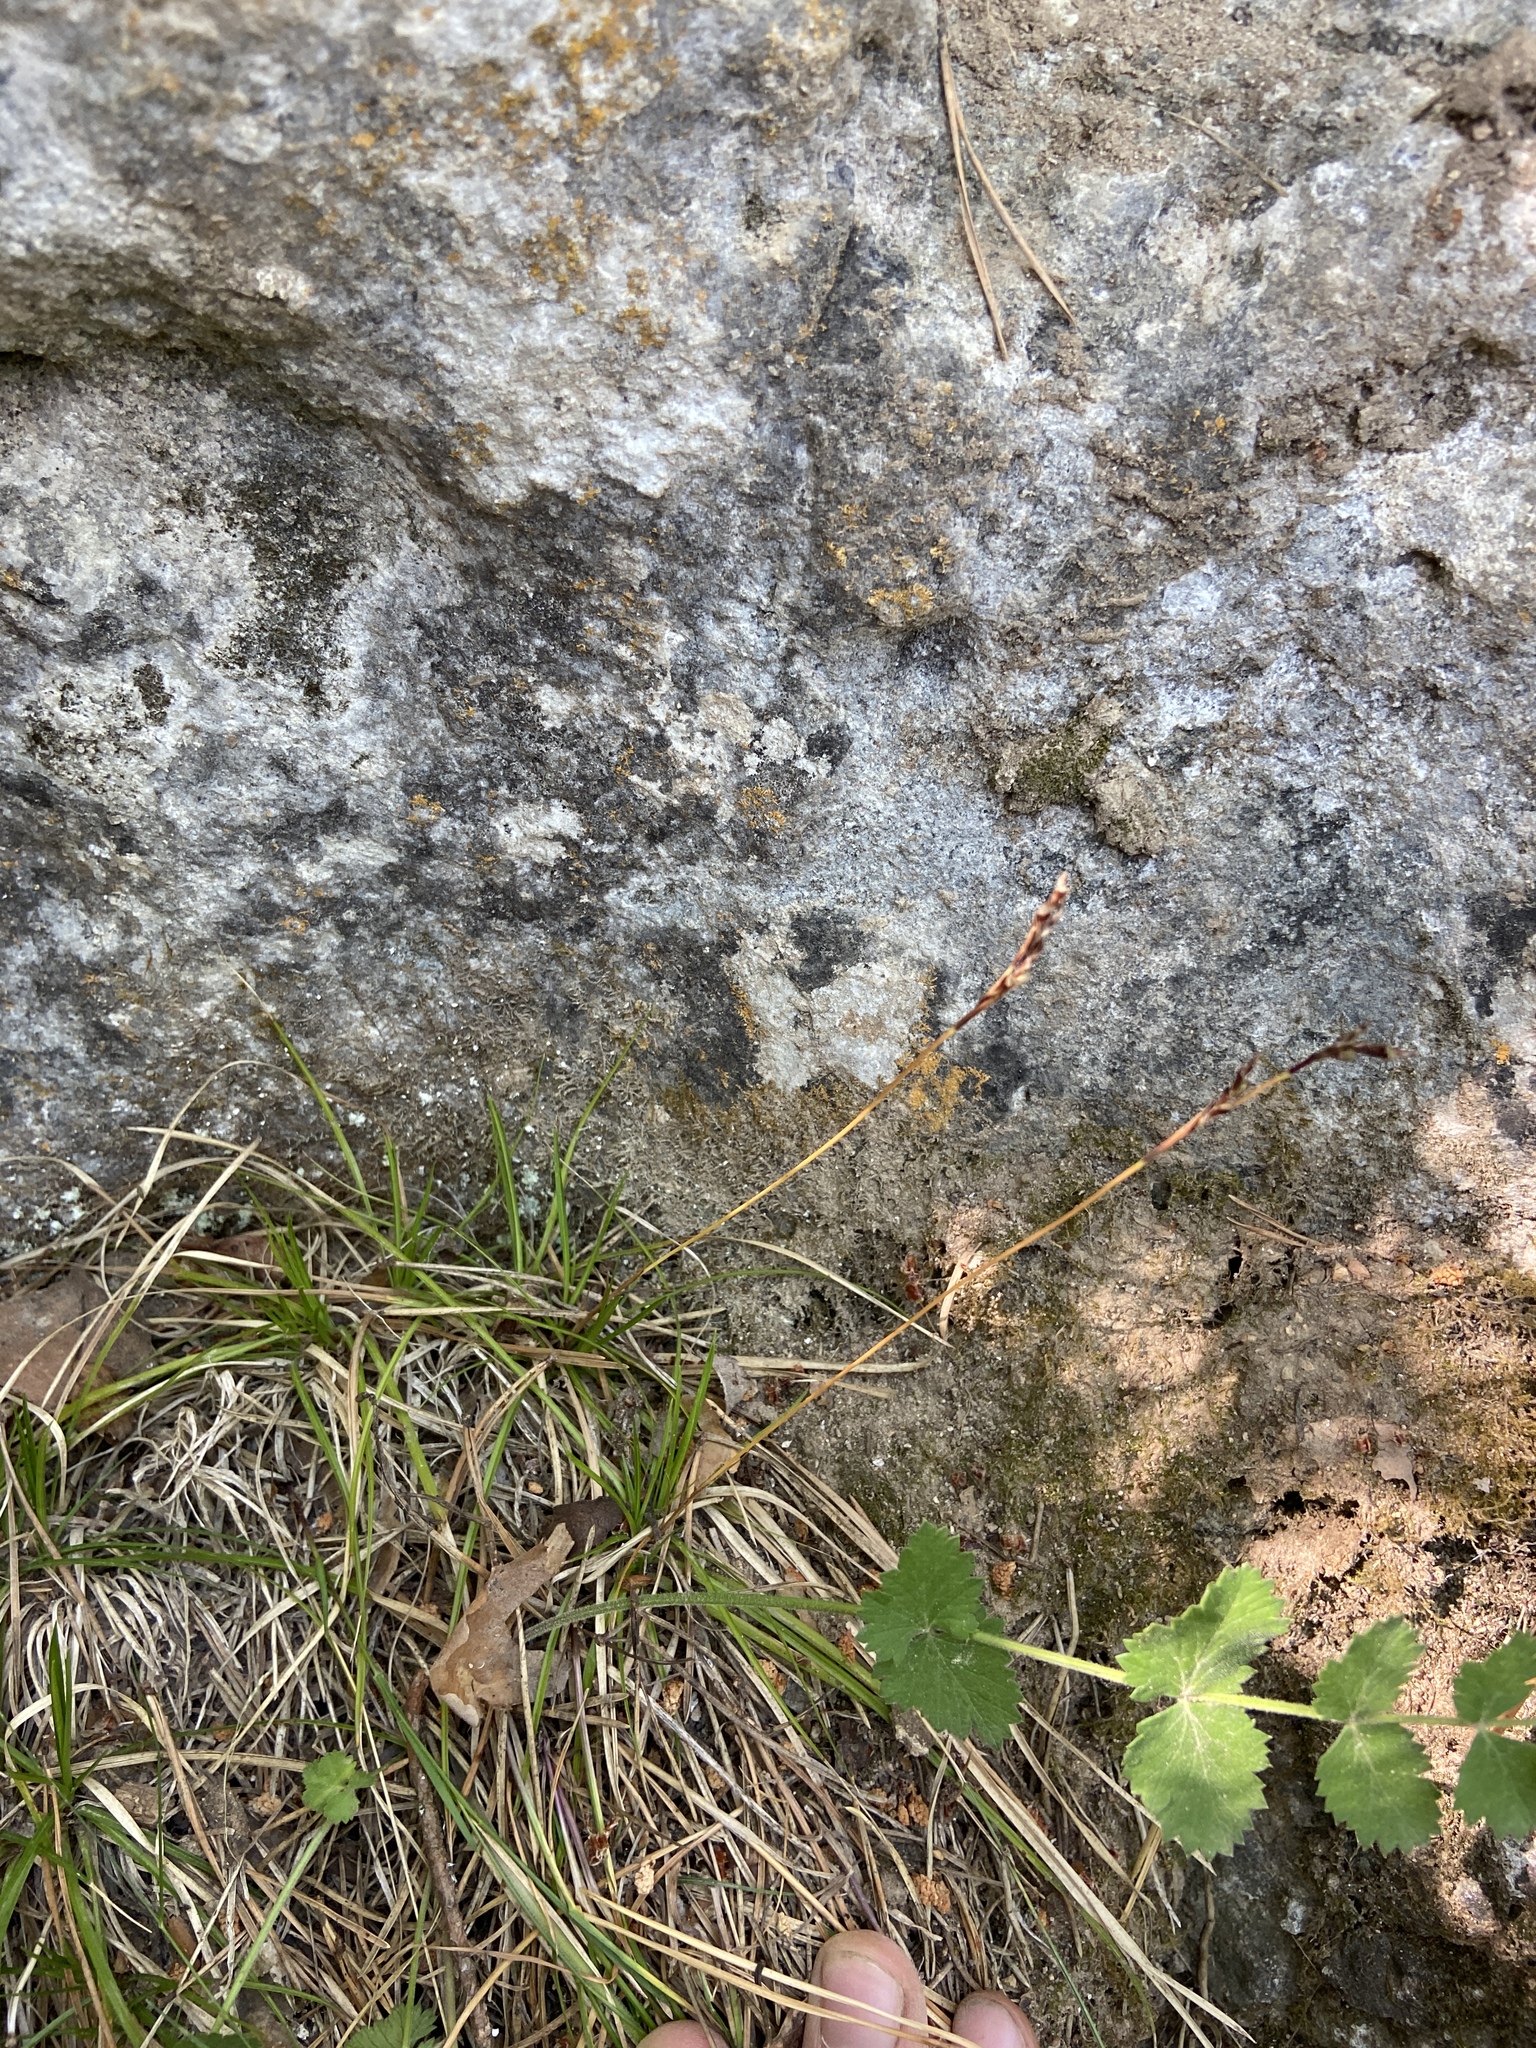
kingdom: Plantae
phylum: Tracheophyta
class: Liliopsida
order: Poales
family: Cyperaceae
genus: Carex
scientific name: Carex digitata
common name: Fingered sedge
